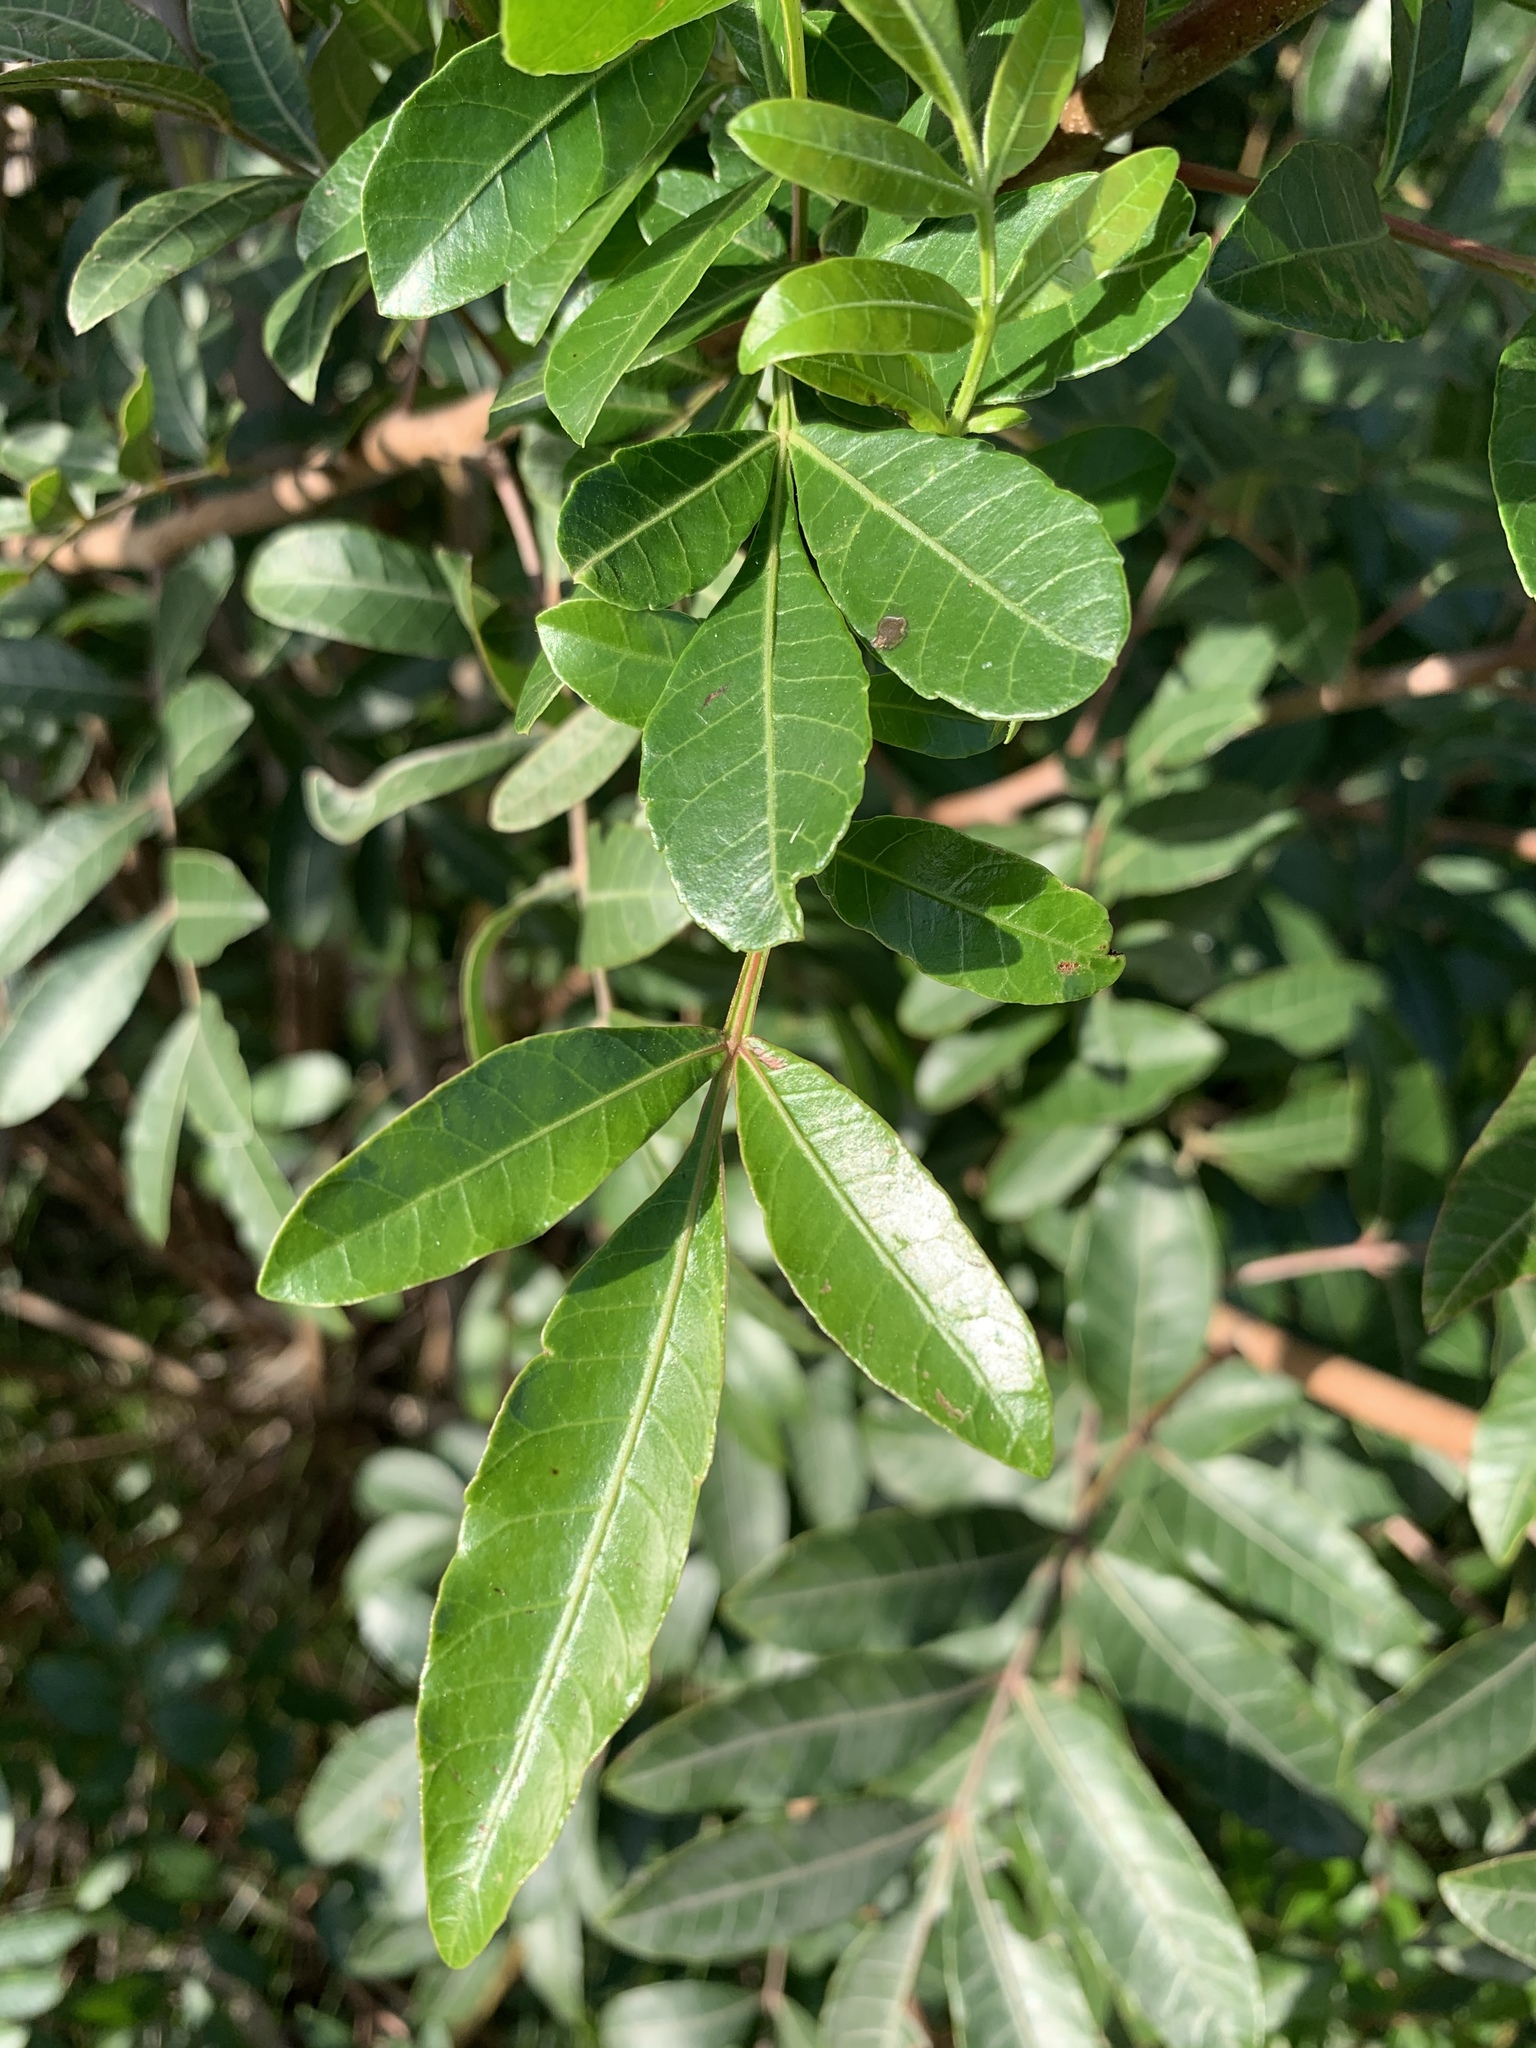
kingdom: Plantae
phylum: Tracheophyta
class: Magnoliopsida
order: Sapindales
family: Anacardiaceae
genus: Schinus
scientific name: Schinus terebinthifolia
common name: Brazilian peppertree
